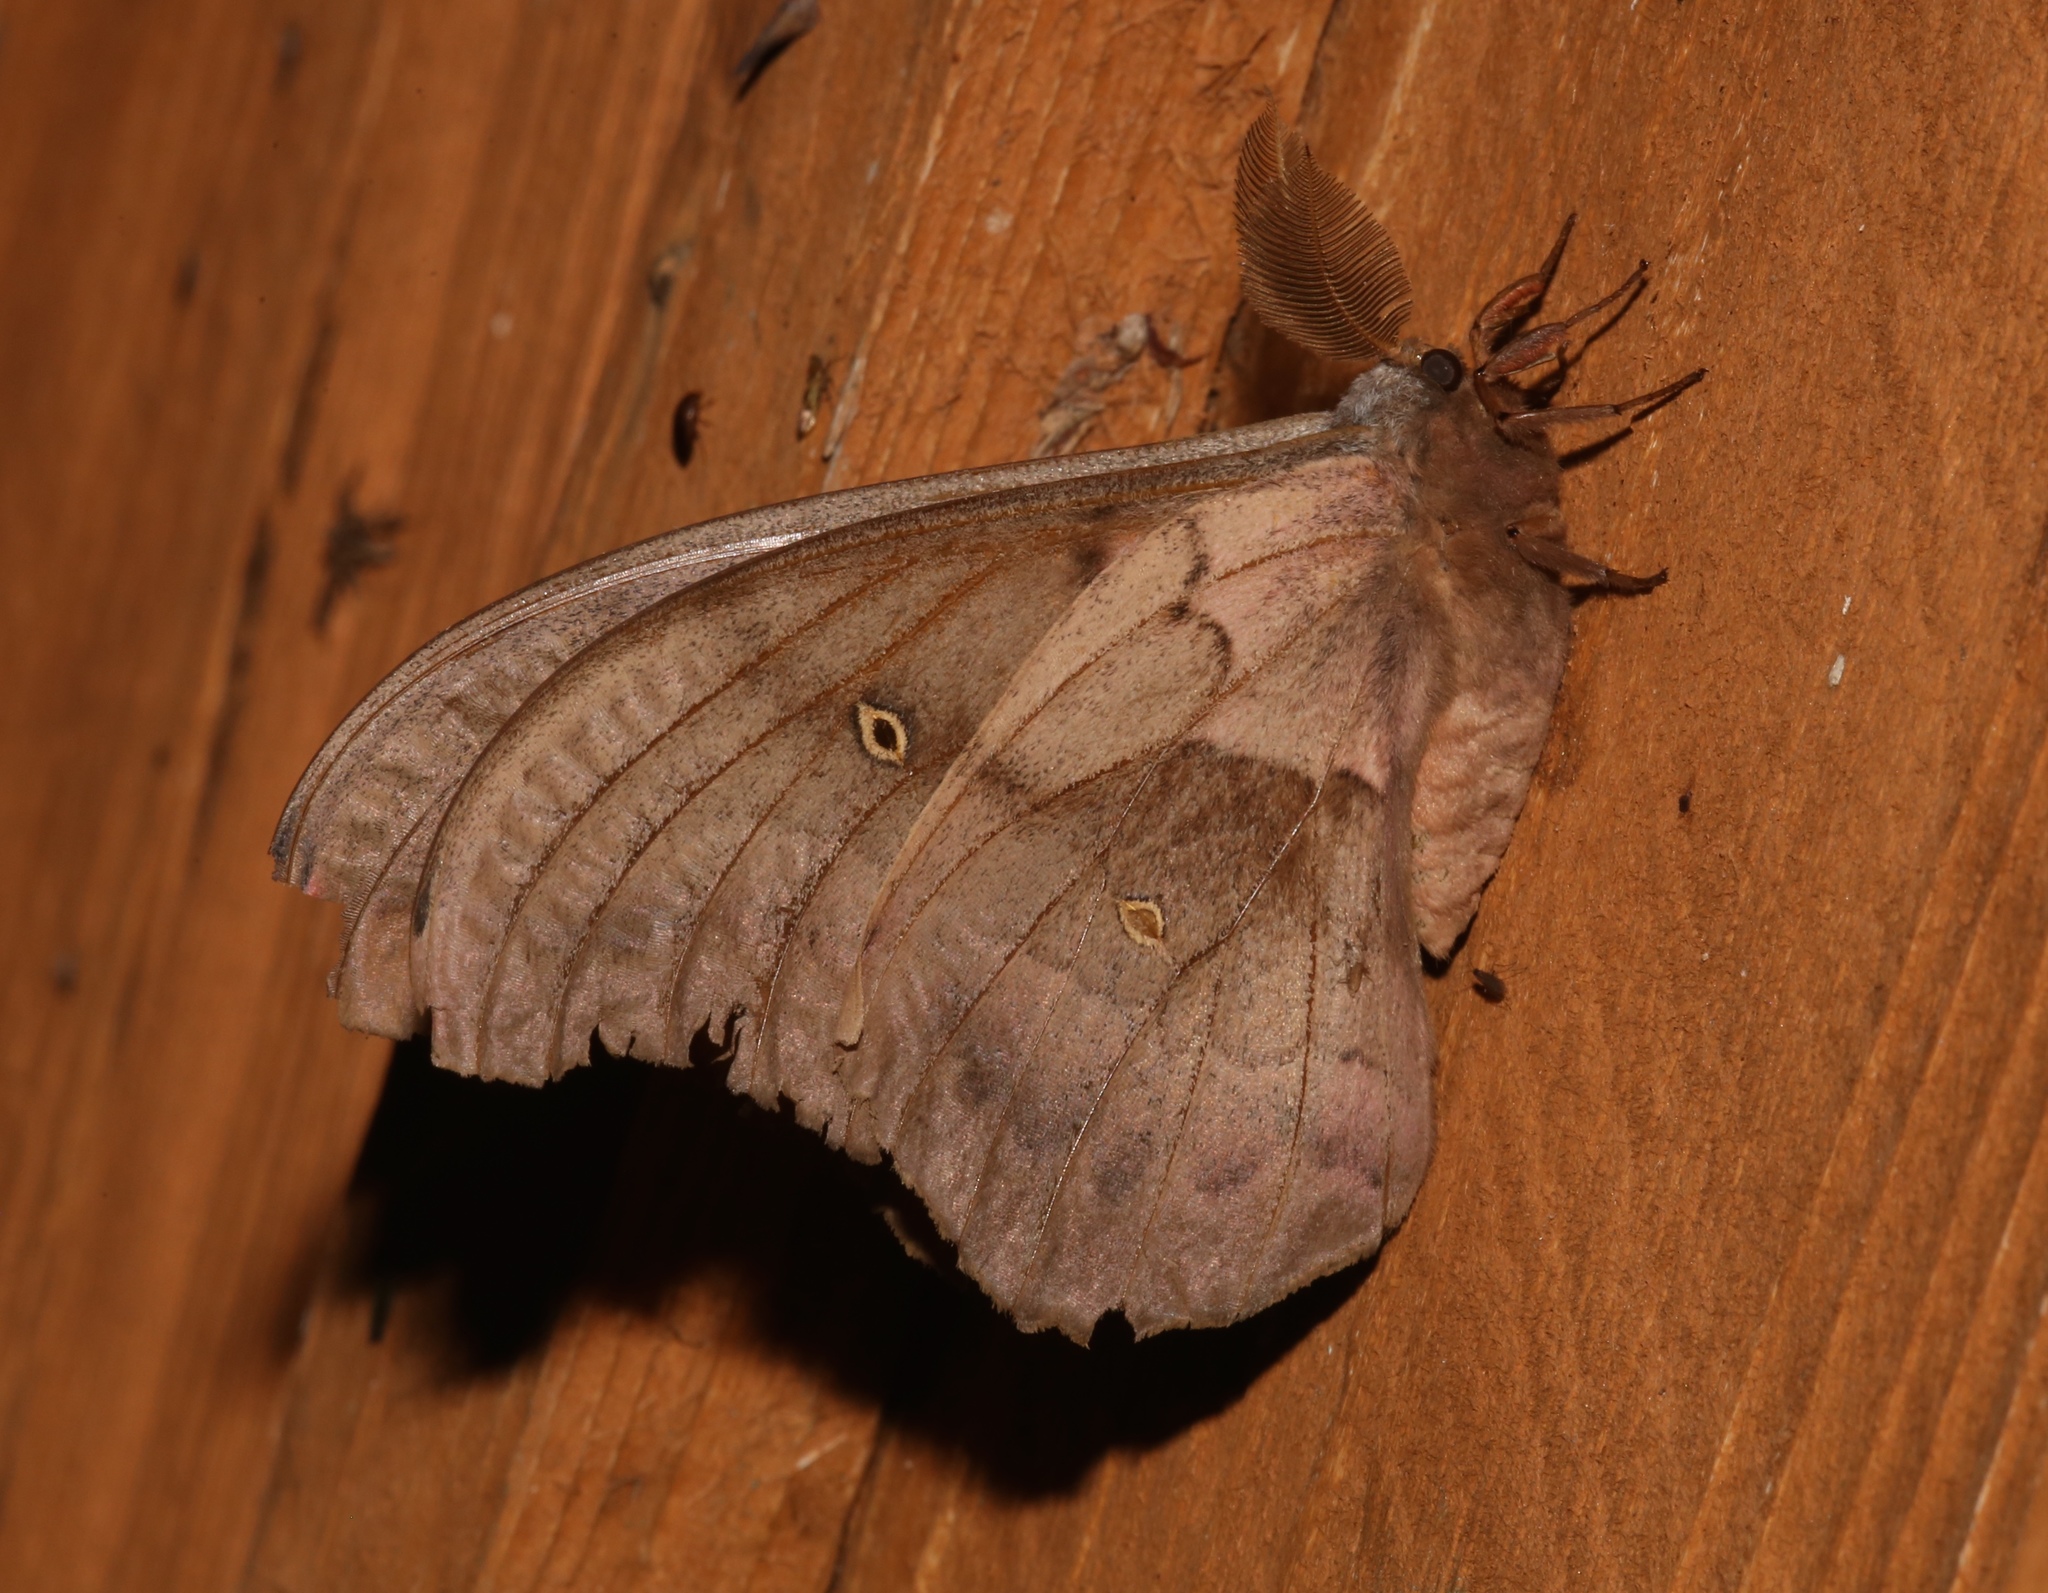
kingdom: Animalia
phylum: Arthropoda
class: Insecta
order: Lepidoptera
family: Saturniidae
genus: Antheraea
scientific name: Antheraea polyphemus
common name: Polyphemus moth
